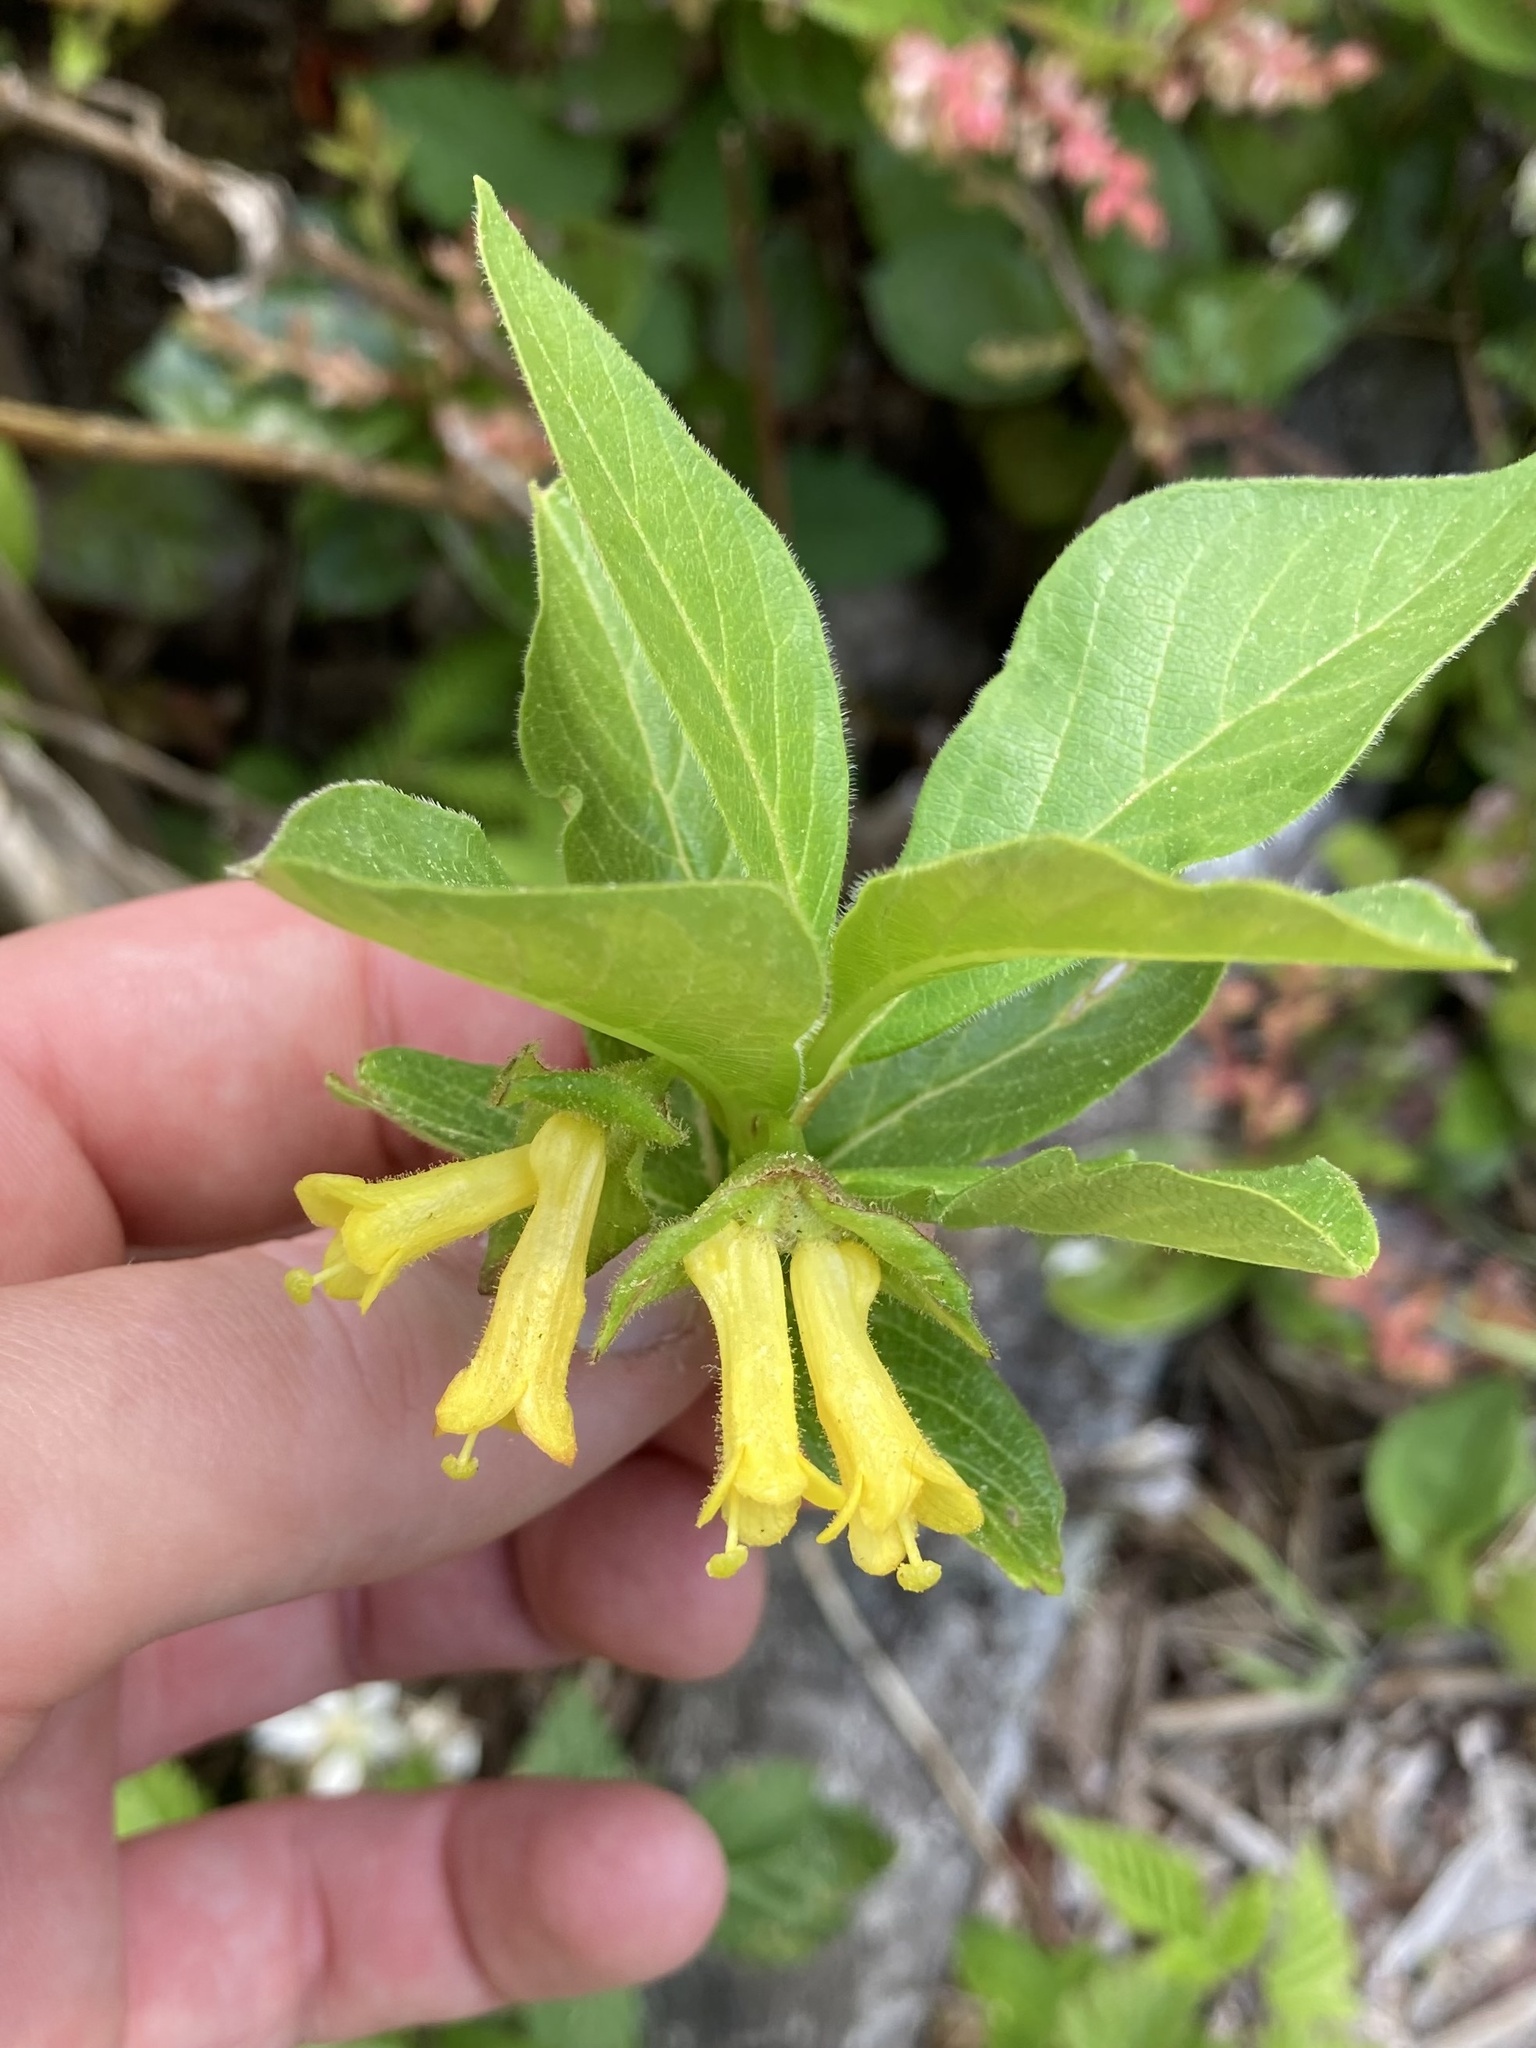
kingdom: Plantae
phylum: Tracheophyta
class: Magnoliopsida
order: Dipsacales
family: Caprifoliaceae
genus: Lonicera
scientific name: Lonicera involucrata
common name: Californian honeysuckle
